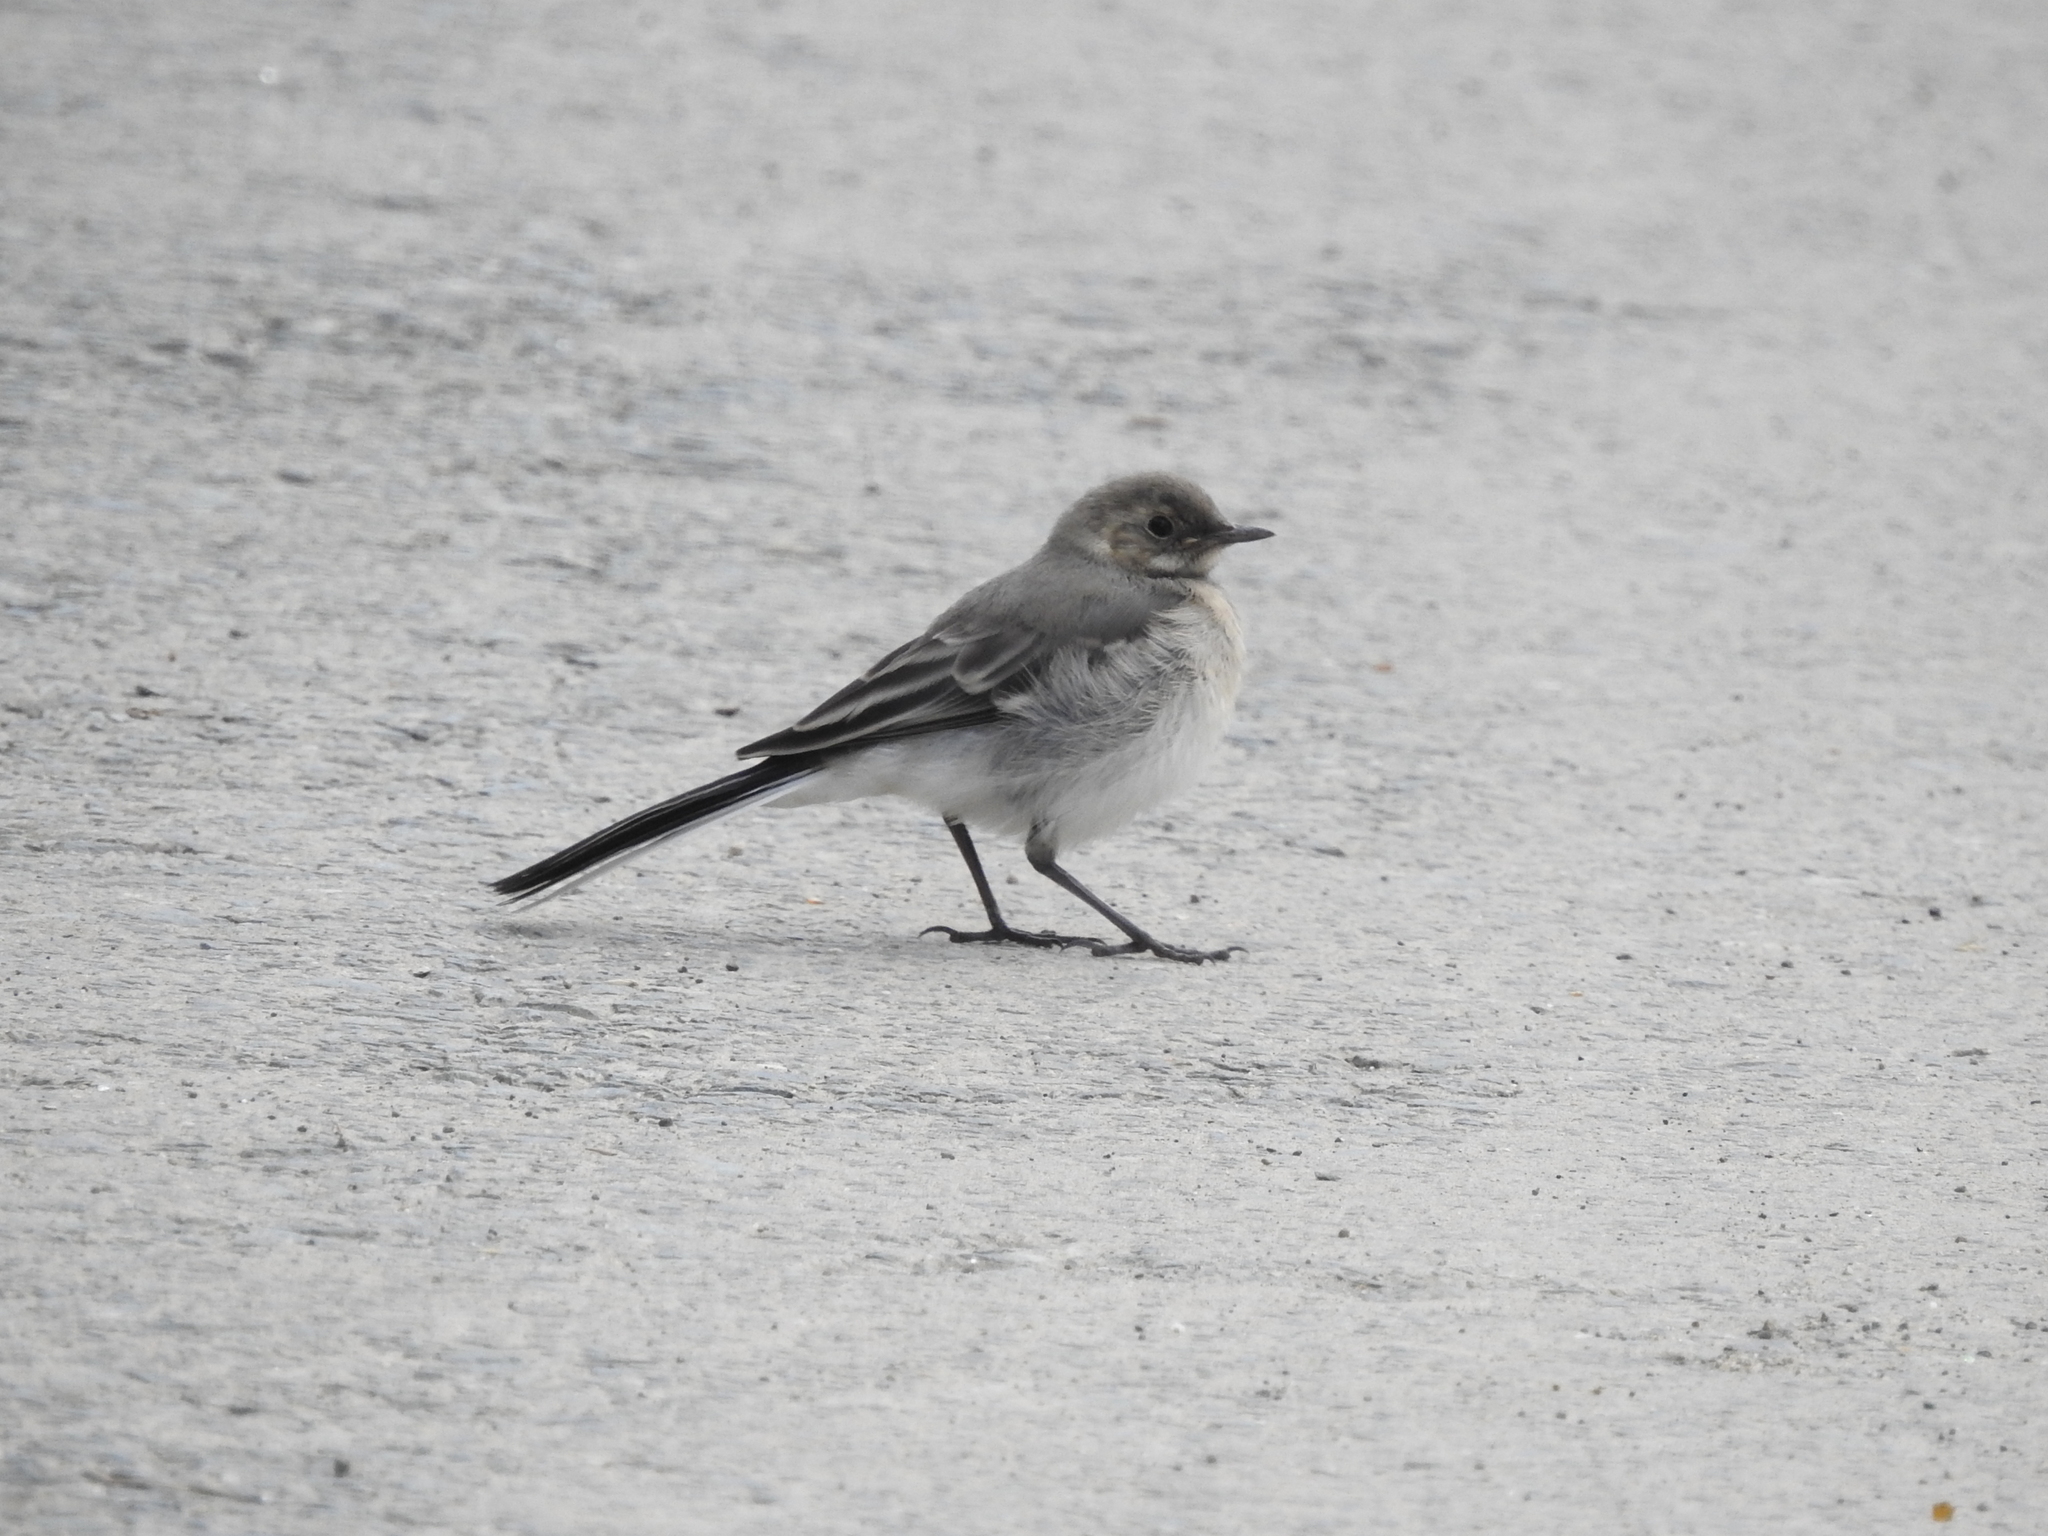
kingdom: Animalia
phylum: Chordata
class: Aves
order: Passeriformes
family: Motacillidae
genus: Motacilla
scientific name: Motacilla alba
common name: White wagtail
